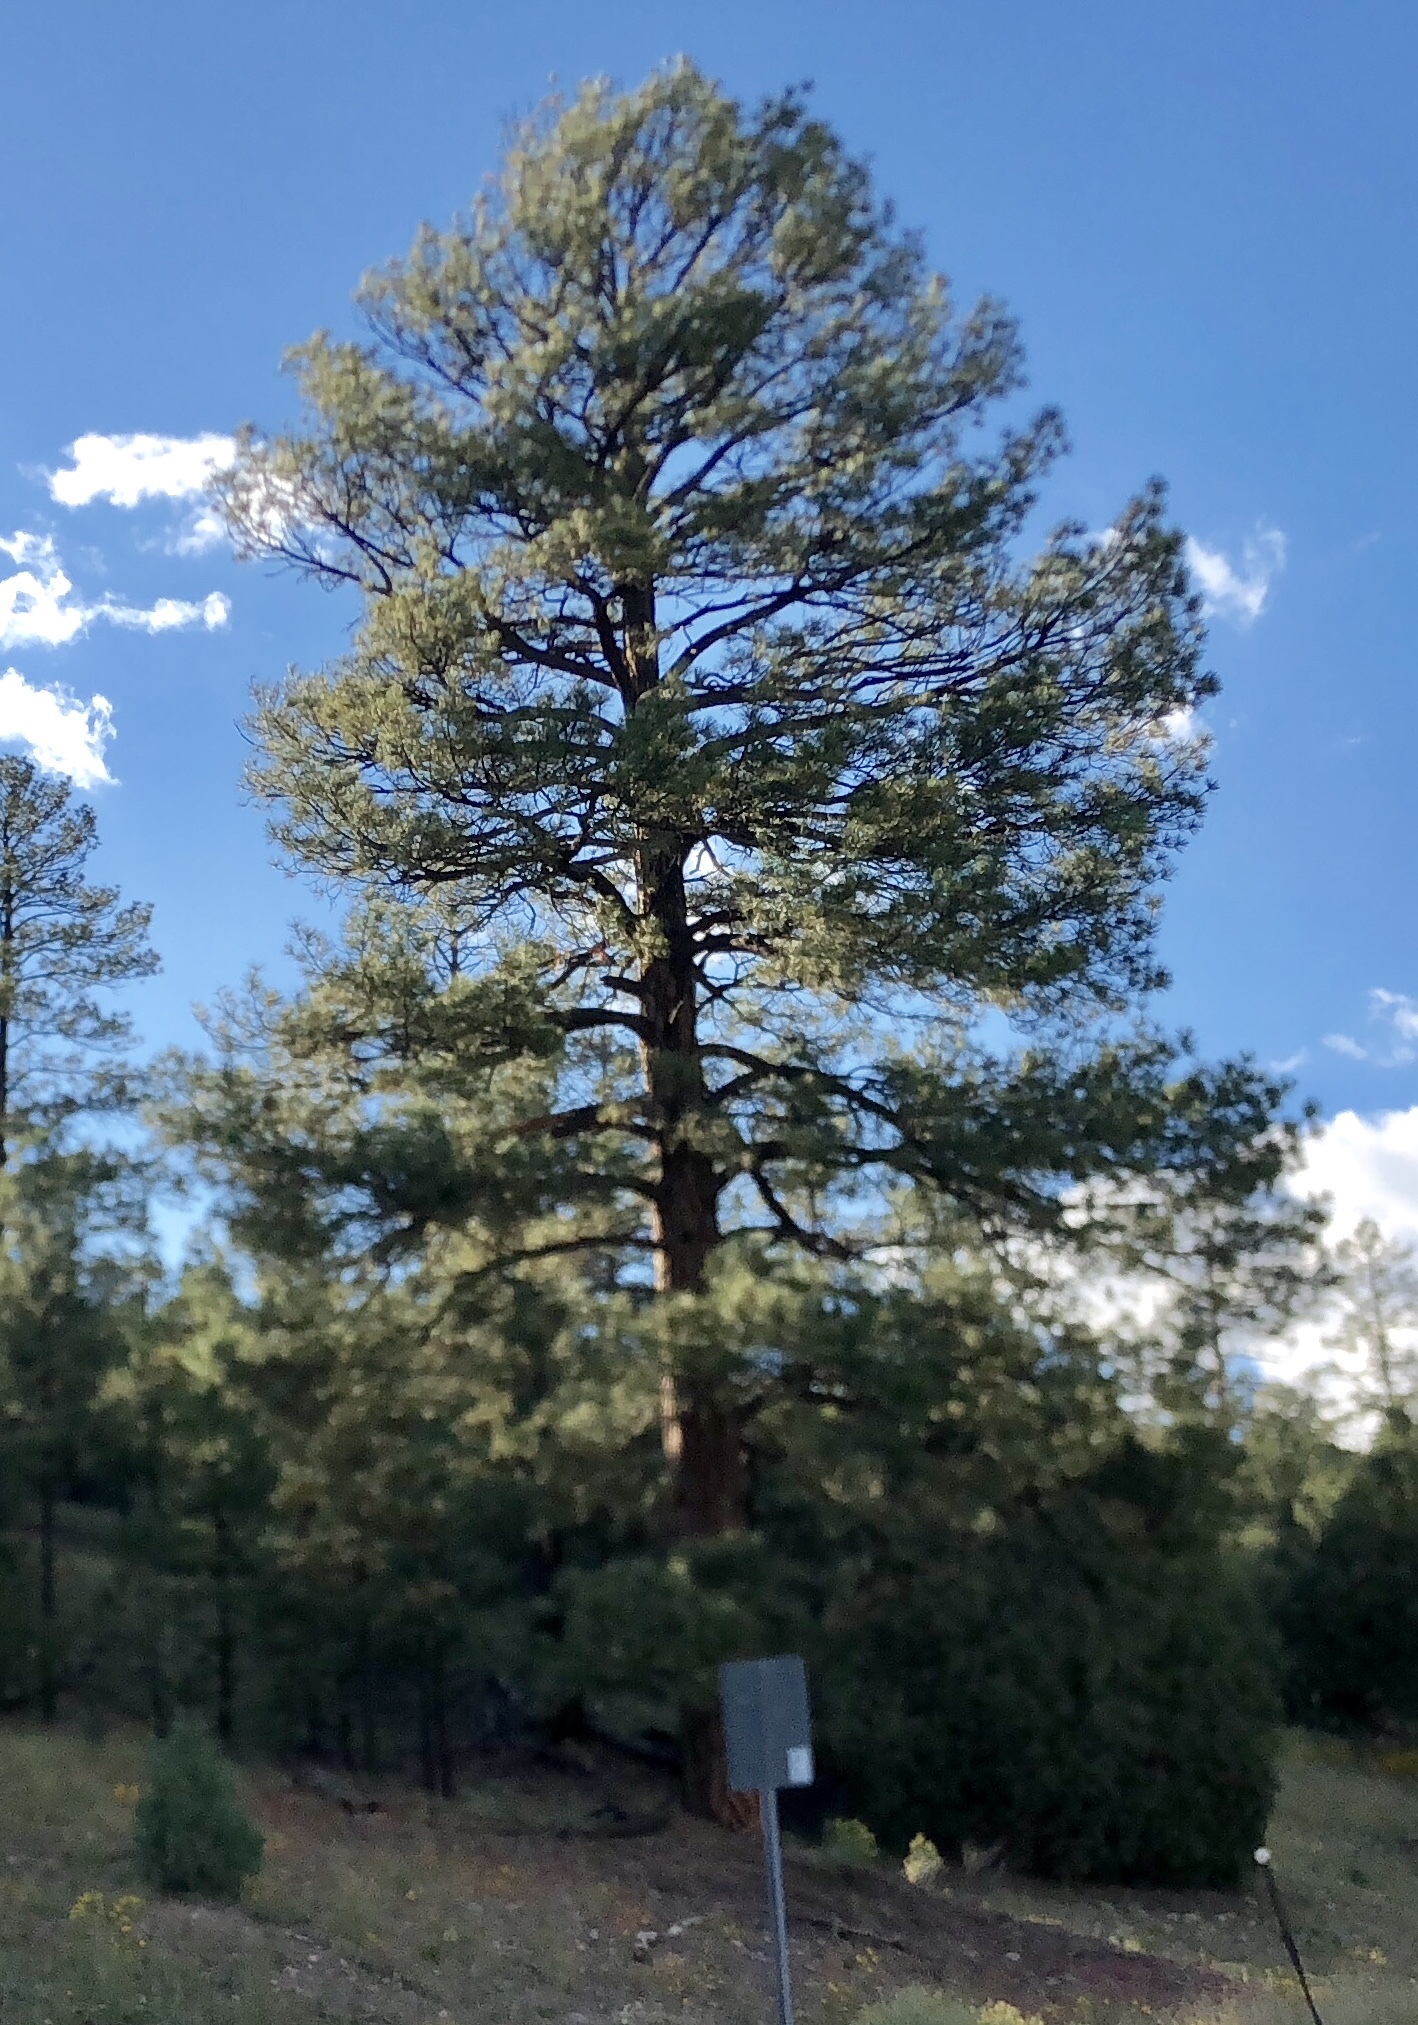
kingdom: Plantae
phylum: Tracheophyta
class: Pinopsida
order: Pinales
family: Pinaceae
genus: Pinus
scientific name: Pinus ponderosa
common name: Western yellow-pine
